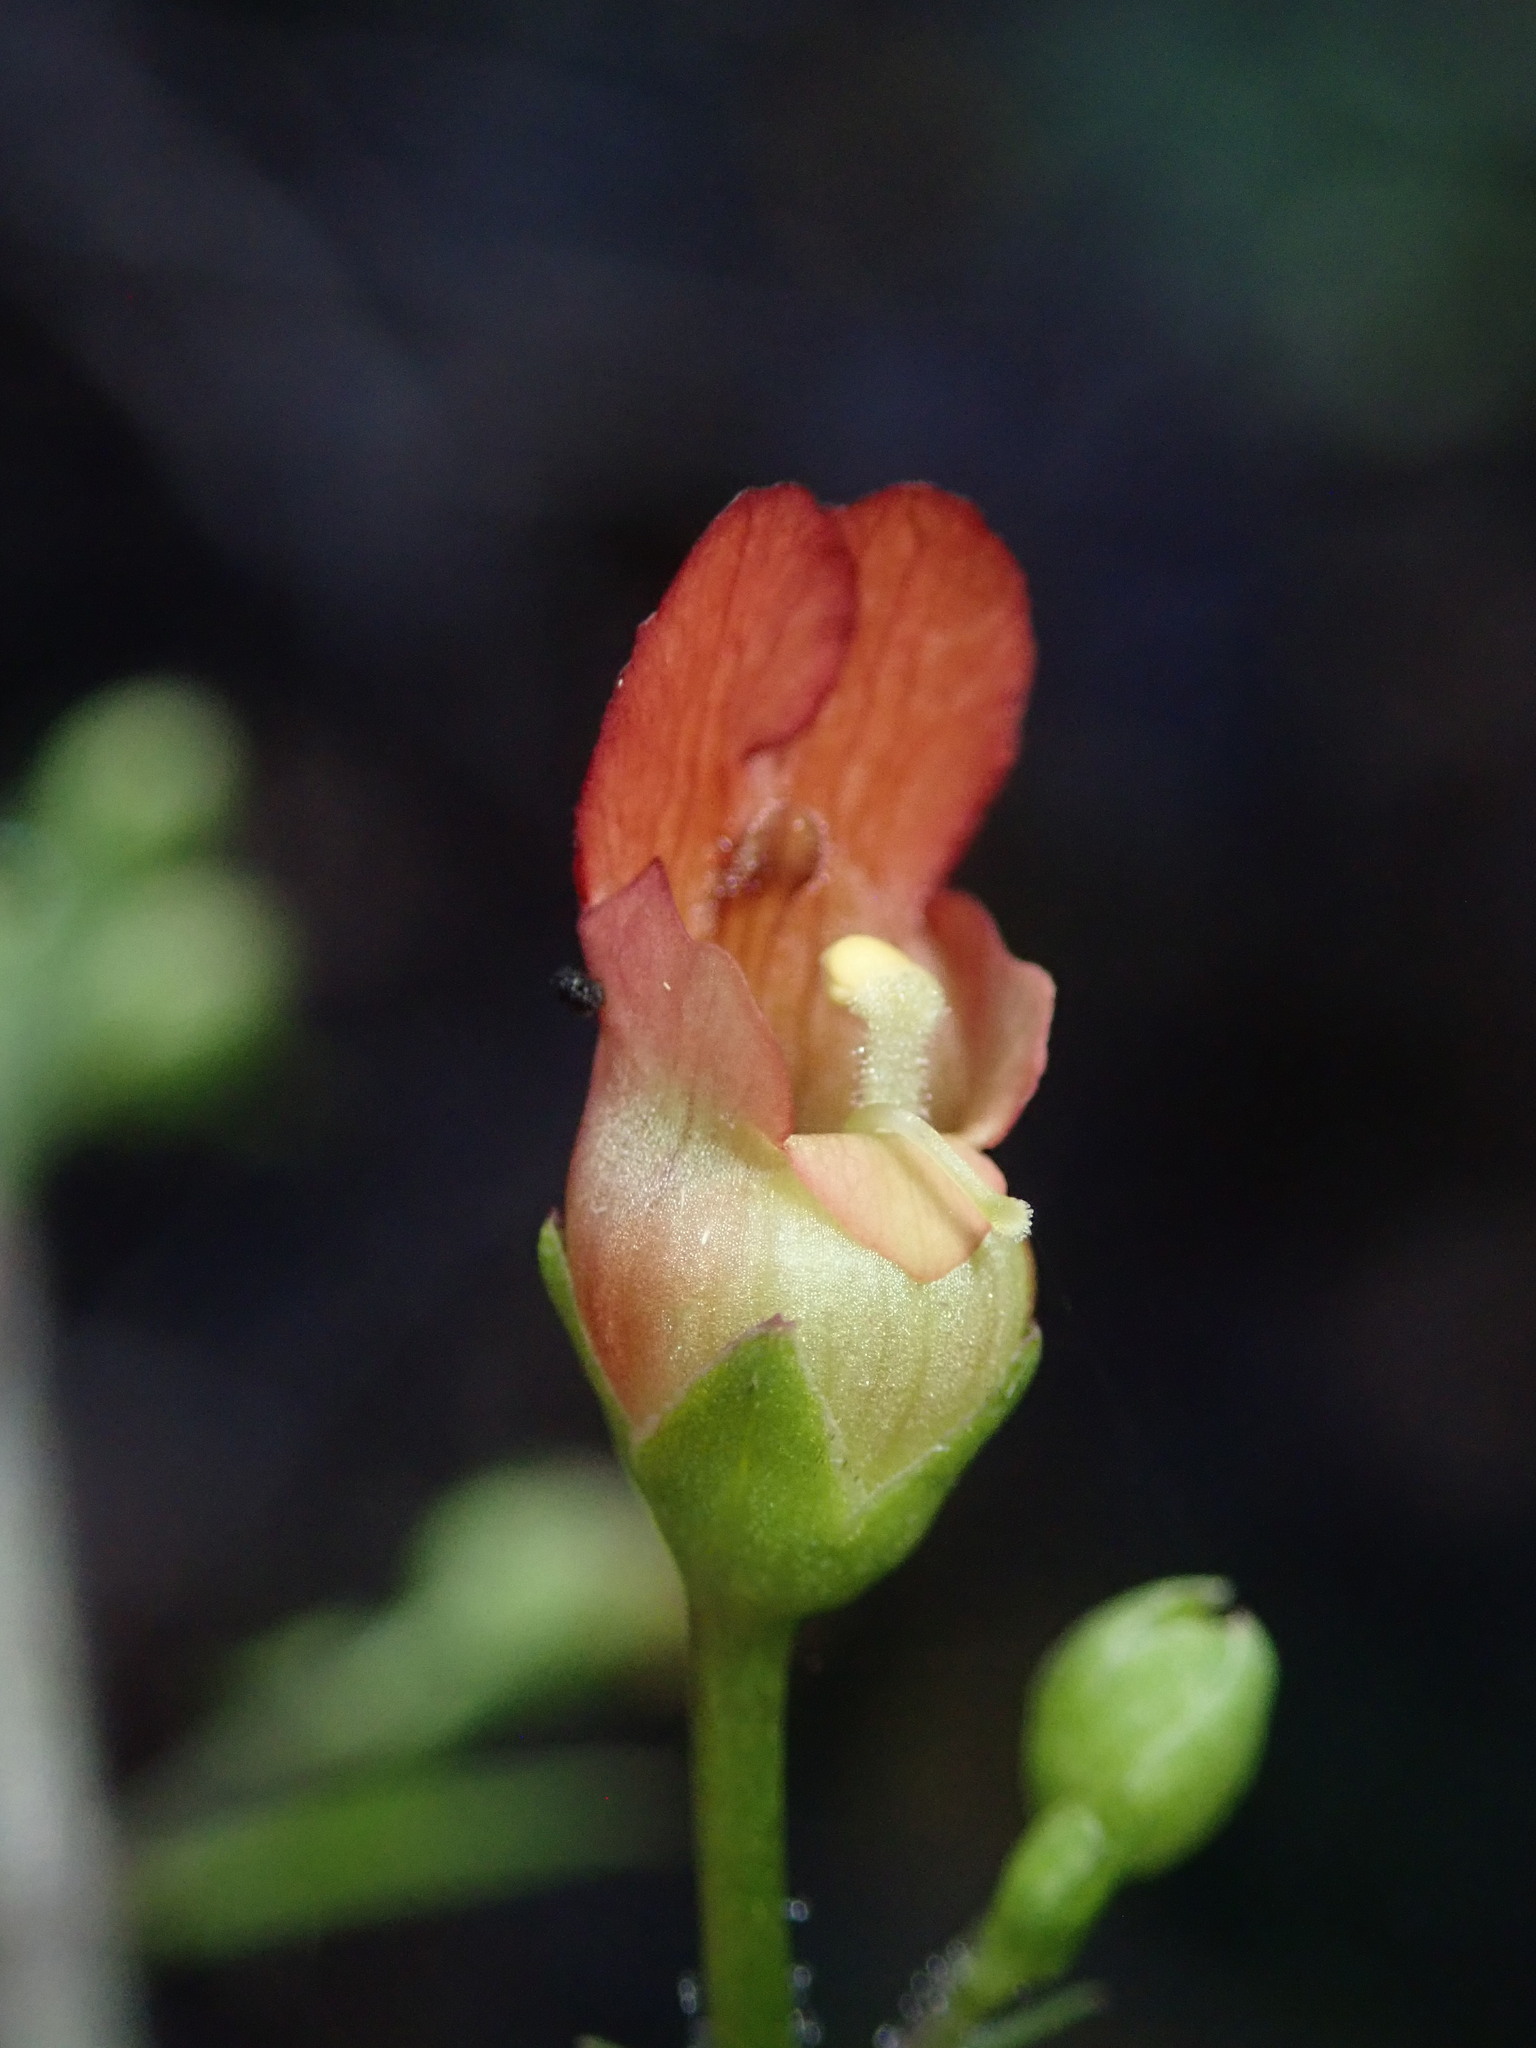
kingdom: Plantae
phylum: Tracheophyta
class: Magnoliopsida
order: Lamiales
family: Scrophulariaceae
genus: Scrophularia
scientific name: Scrophularia californica
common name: California figwort
